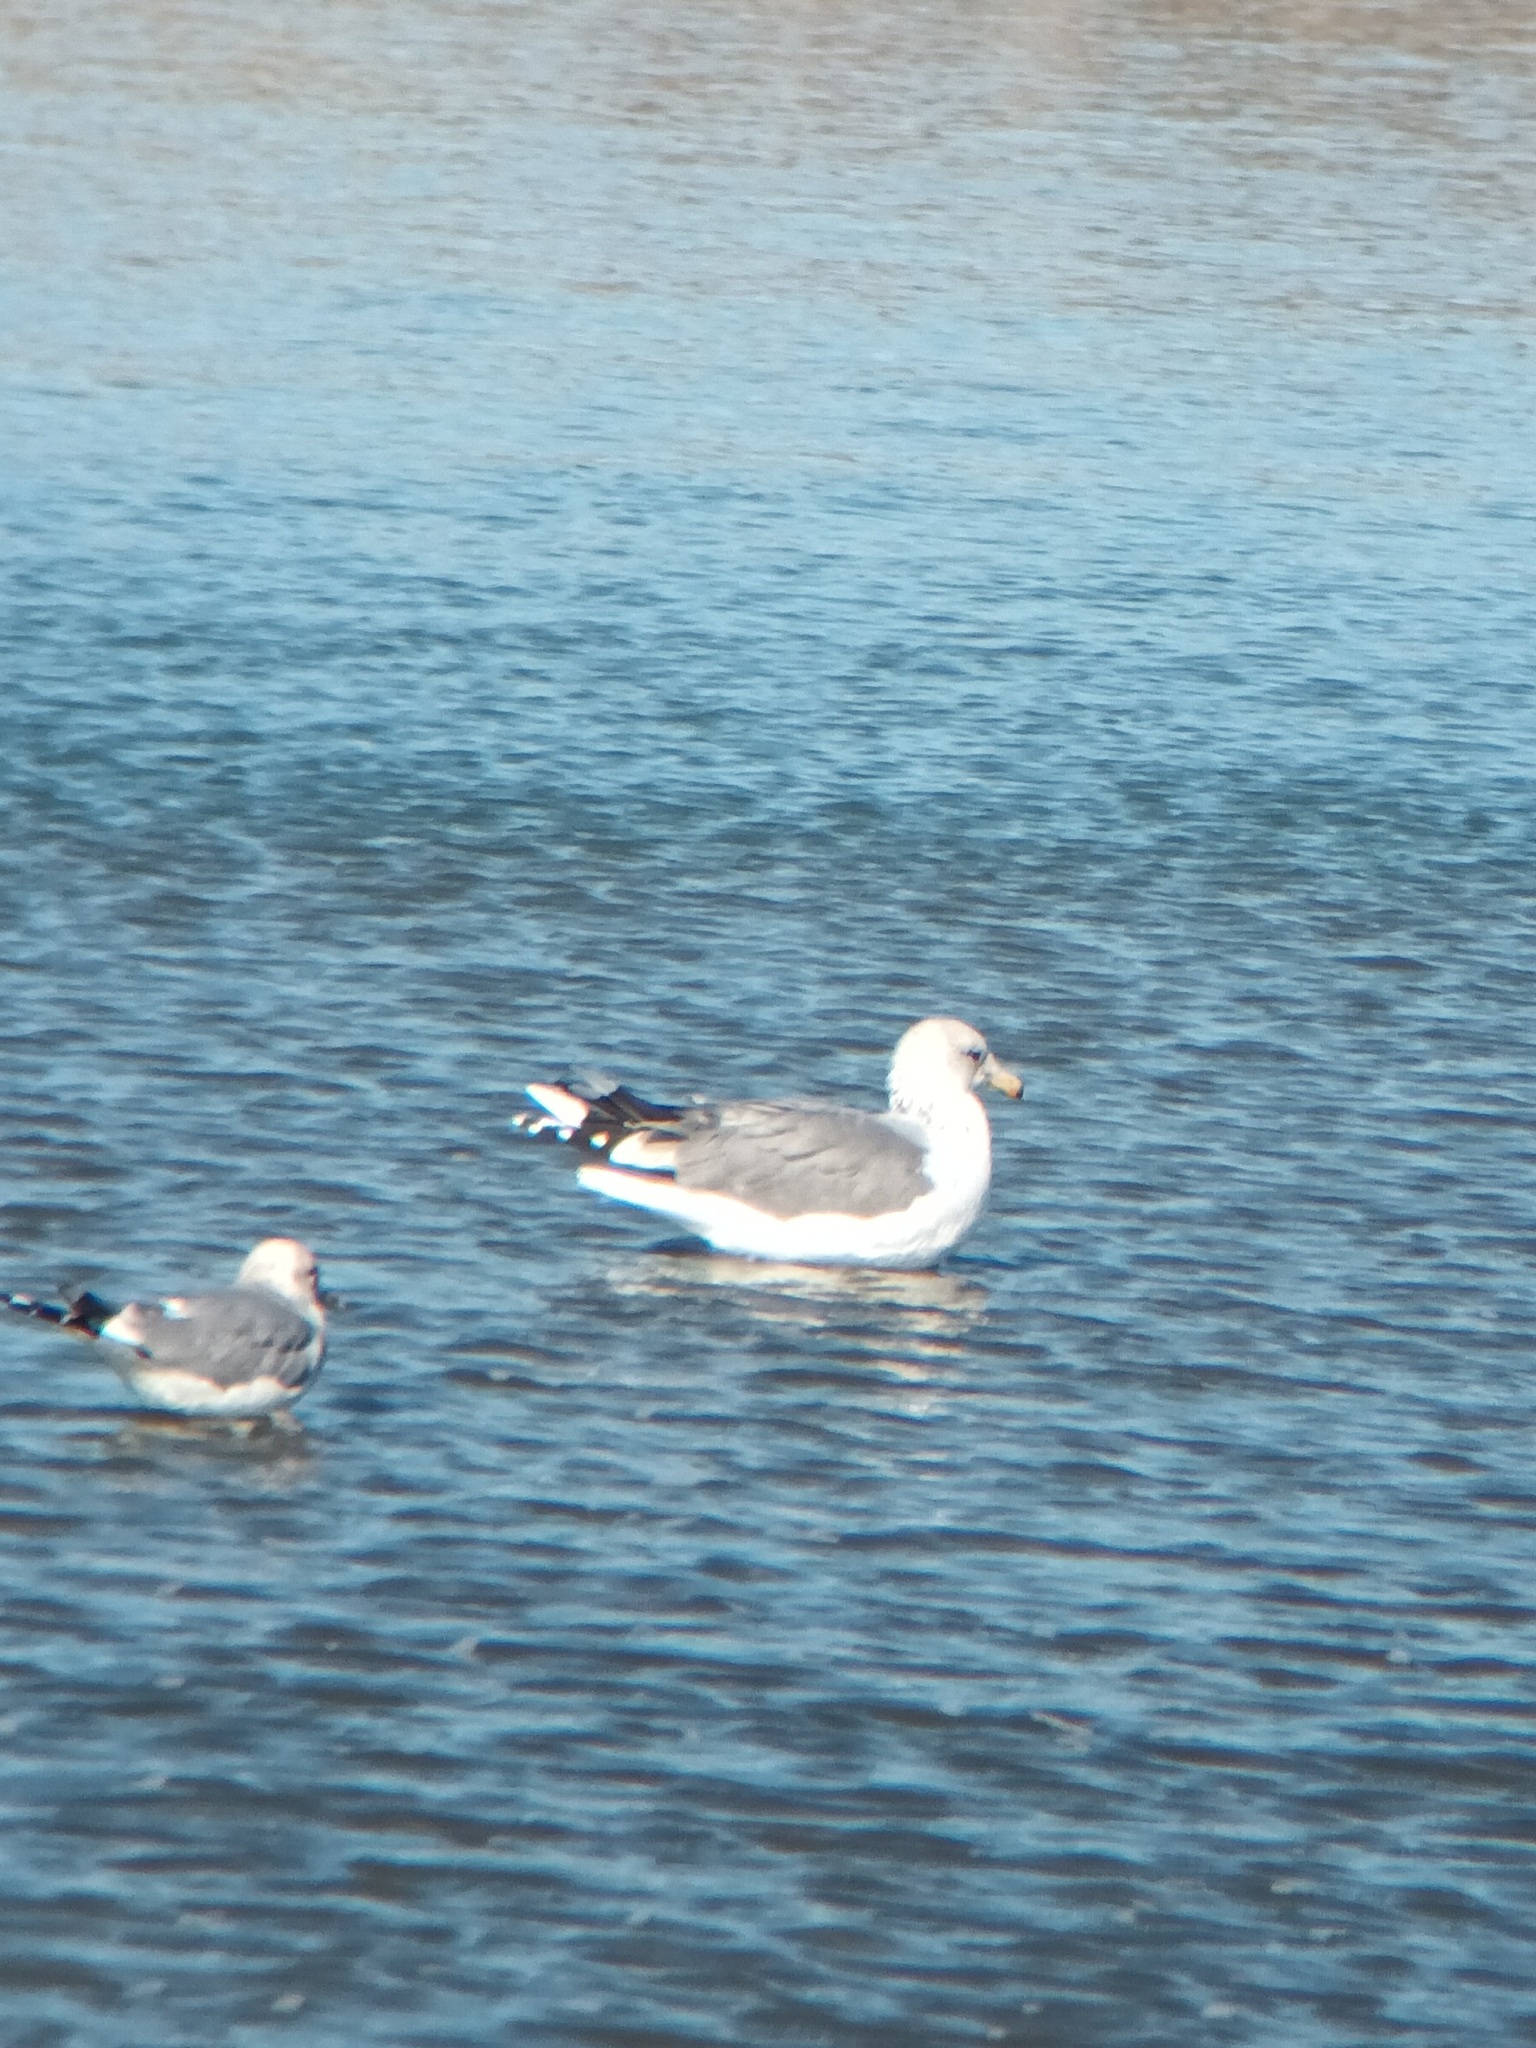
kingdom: Animalia
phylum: Chordata
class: Aves
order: Charadriiformes
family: Laridae
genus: Larus
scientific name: Larus californicus
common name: California gull
